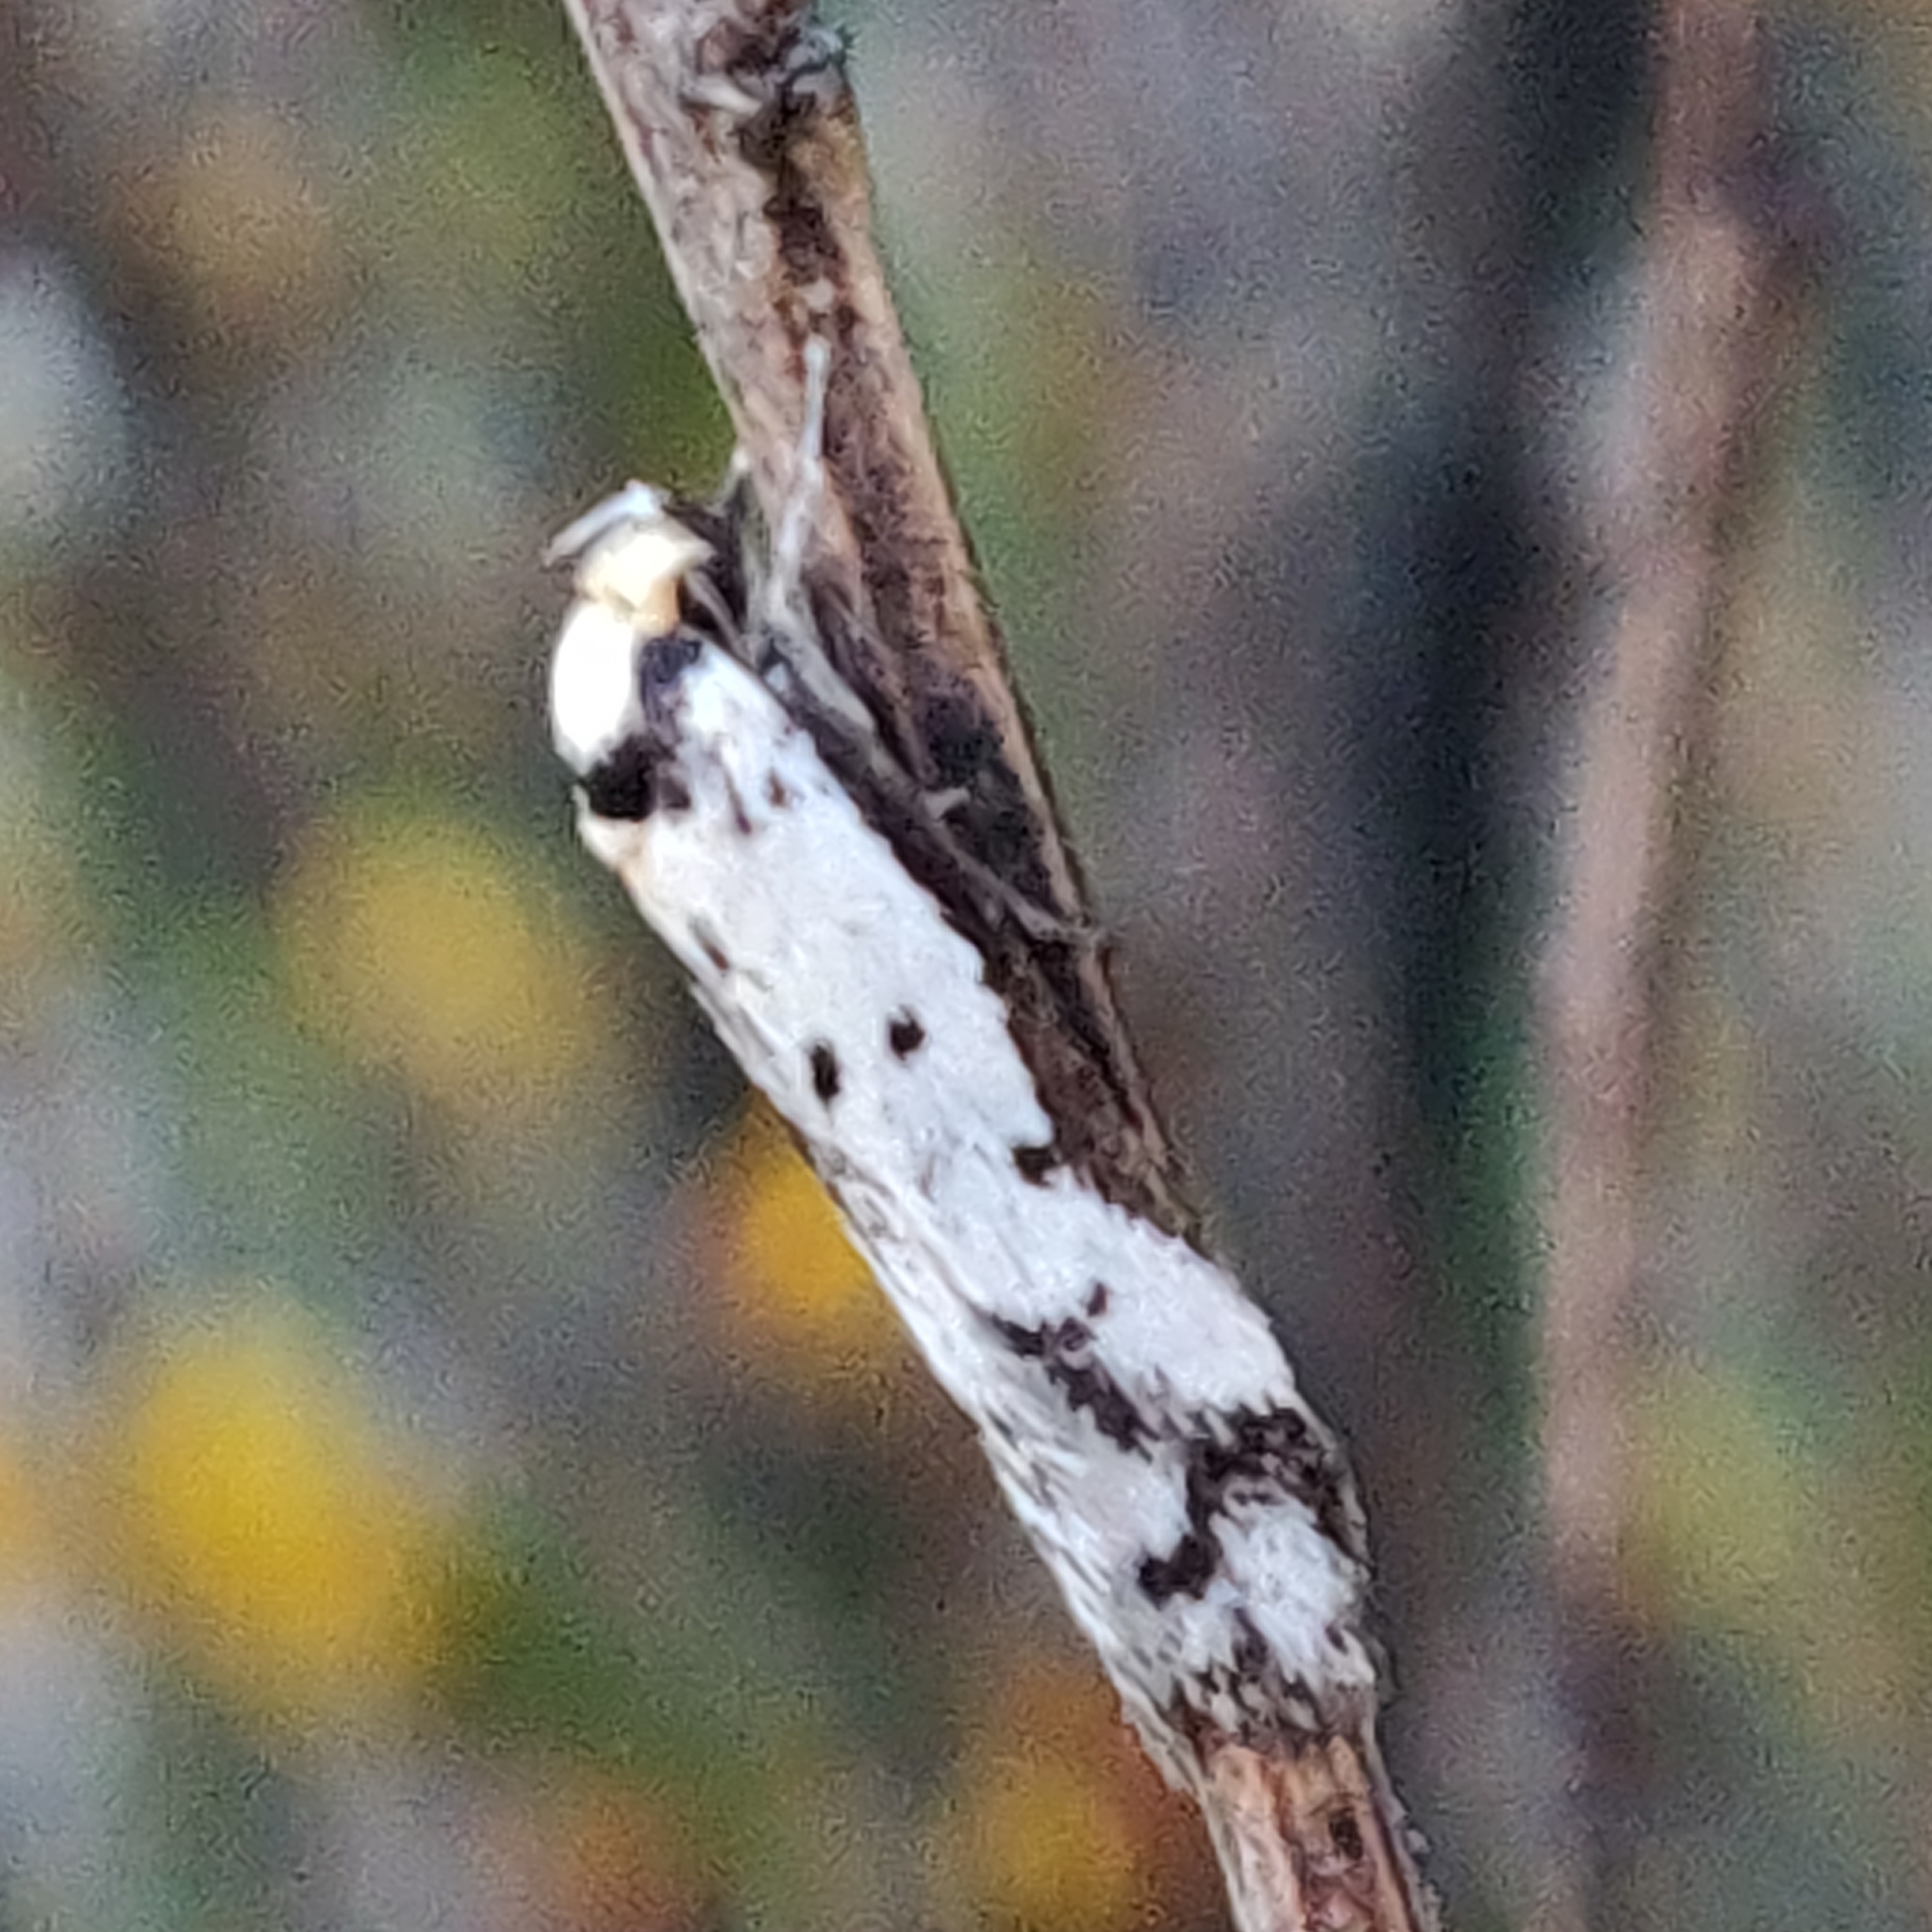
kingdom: Animalia
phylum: Arthropoda
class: Insecta
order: Lepidoptera
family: Oecophoridae
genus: Philobota
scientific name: Philobota lysizona
